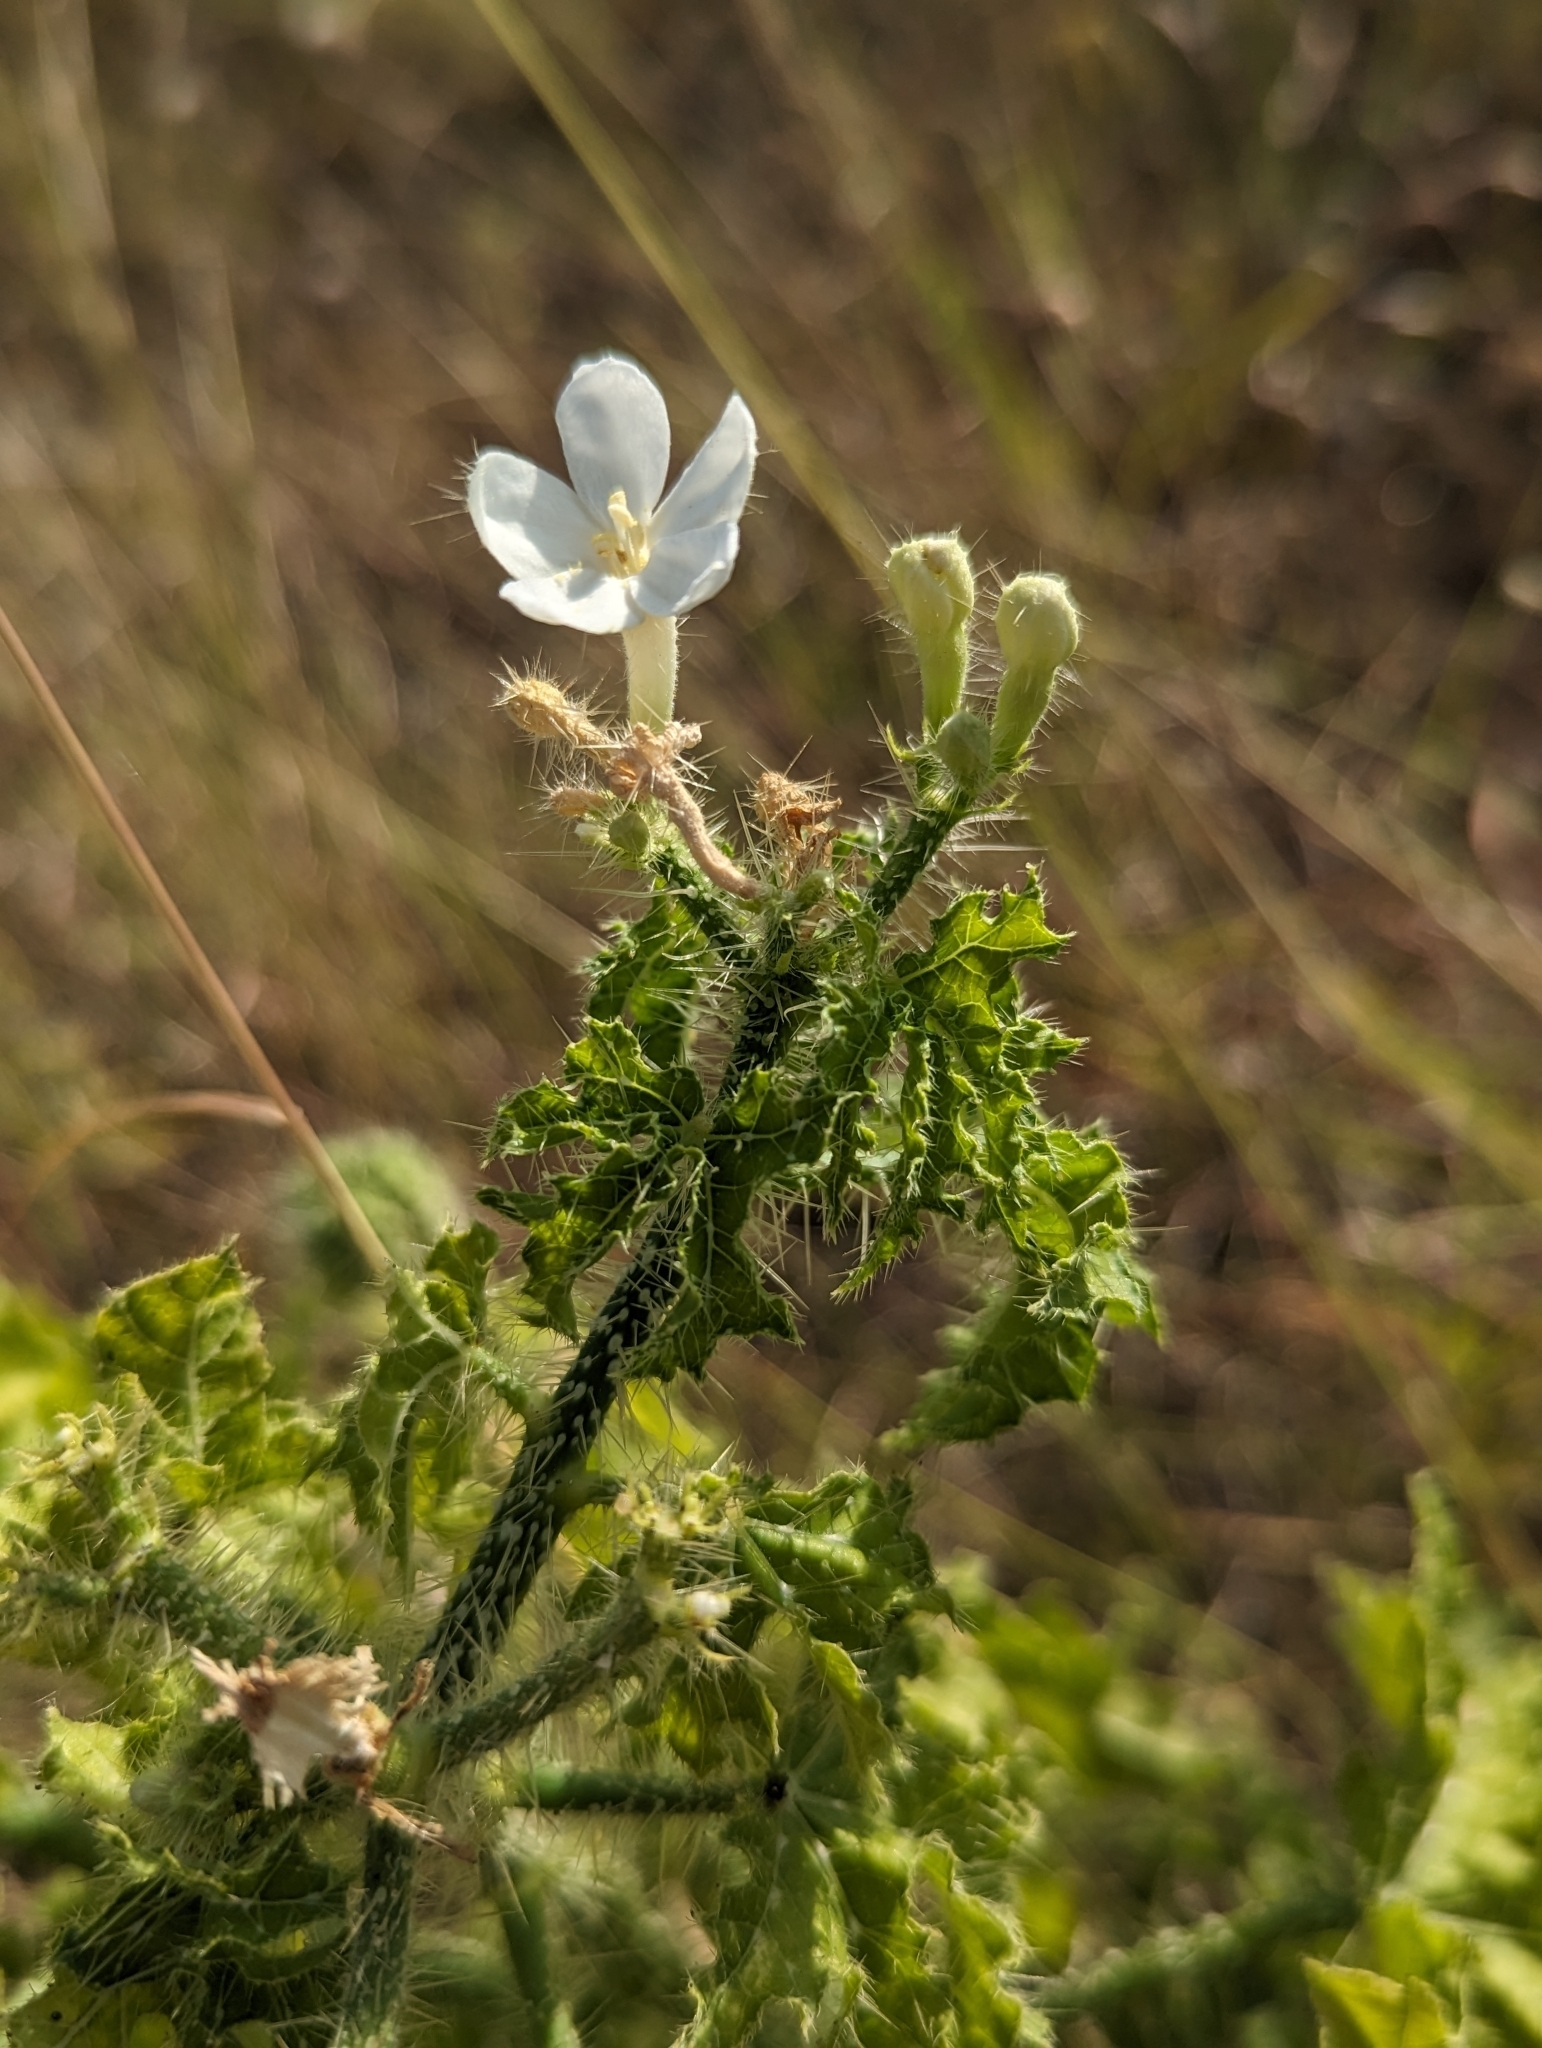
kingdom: Plantae
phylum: Tracheophyta
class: Magnoliopsida
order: Malpighiales
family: Euphorbiaceae
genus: Cnidoscolus
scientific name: Cnidoscolus texanus
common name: Texas bull-nettle
